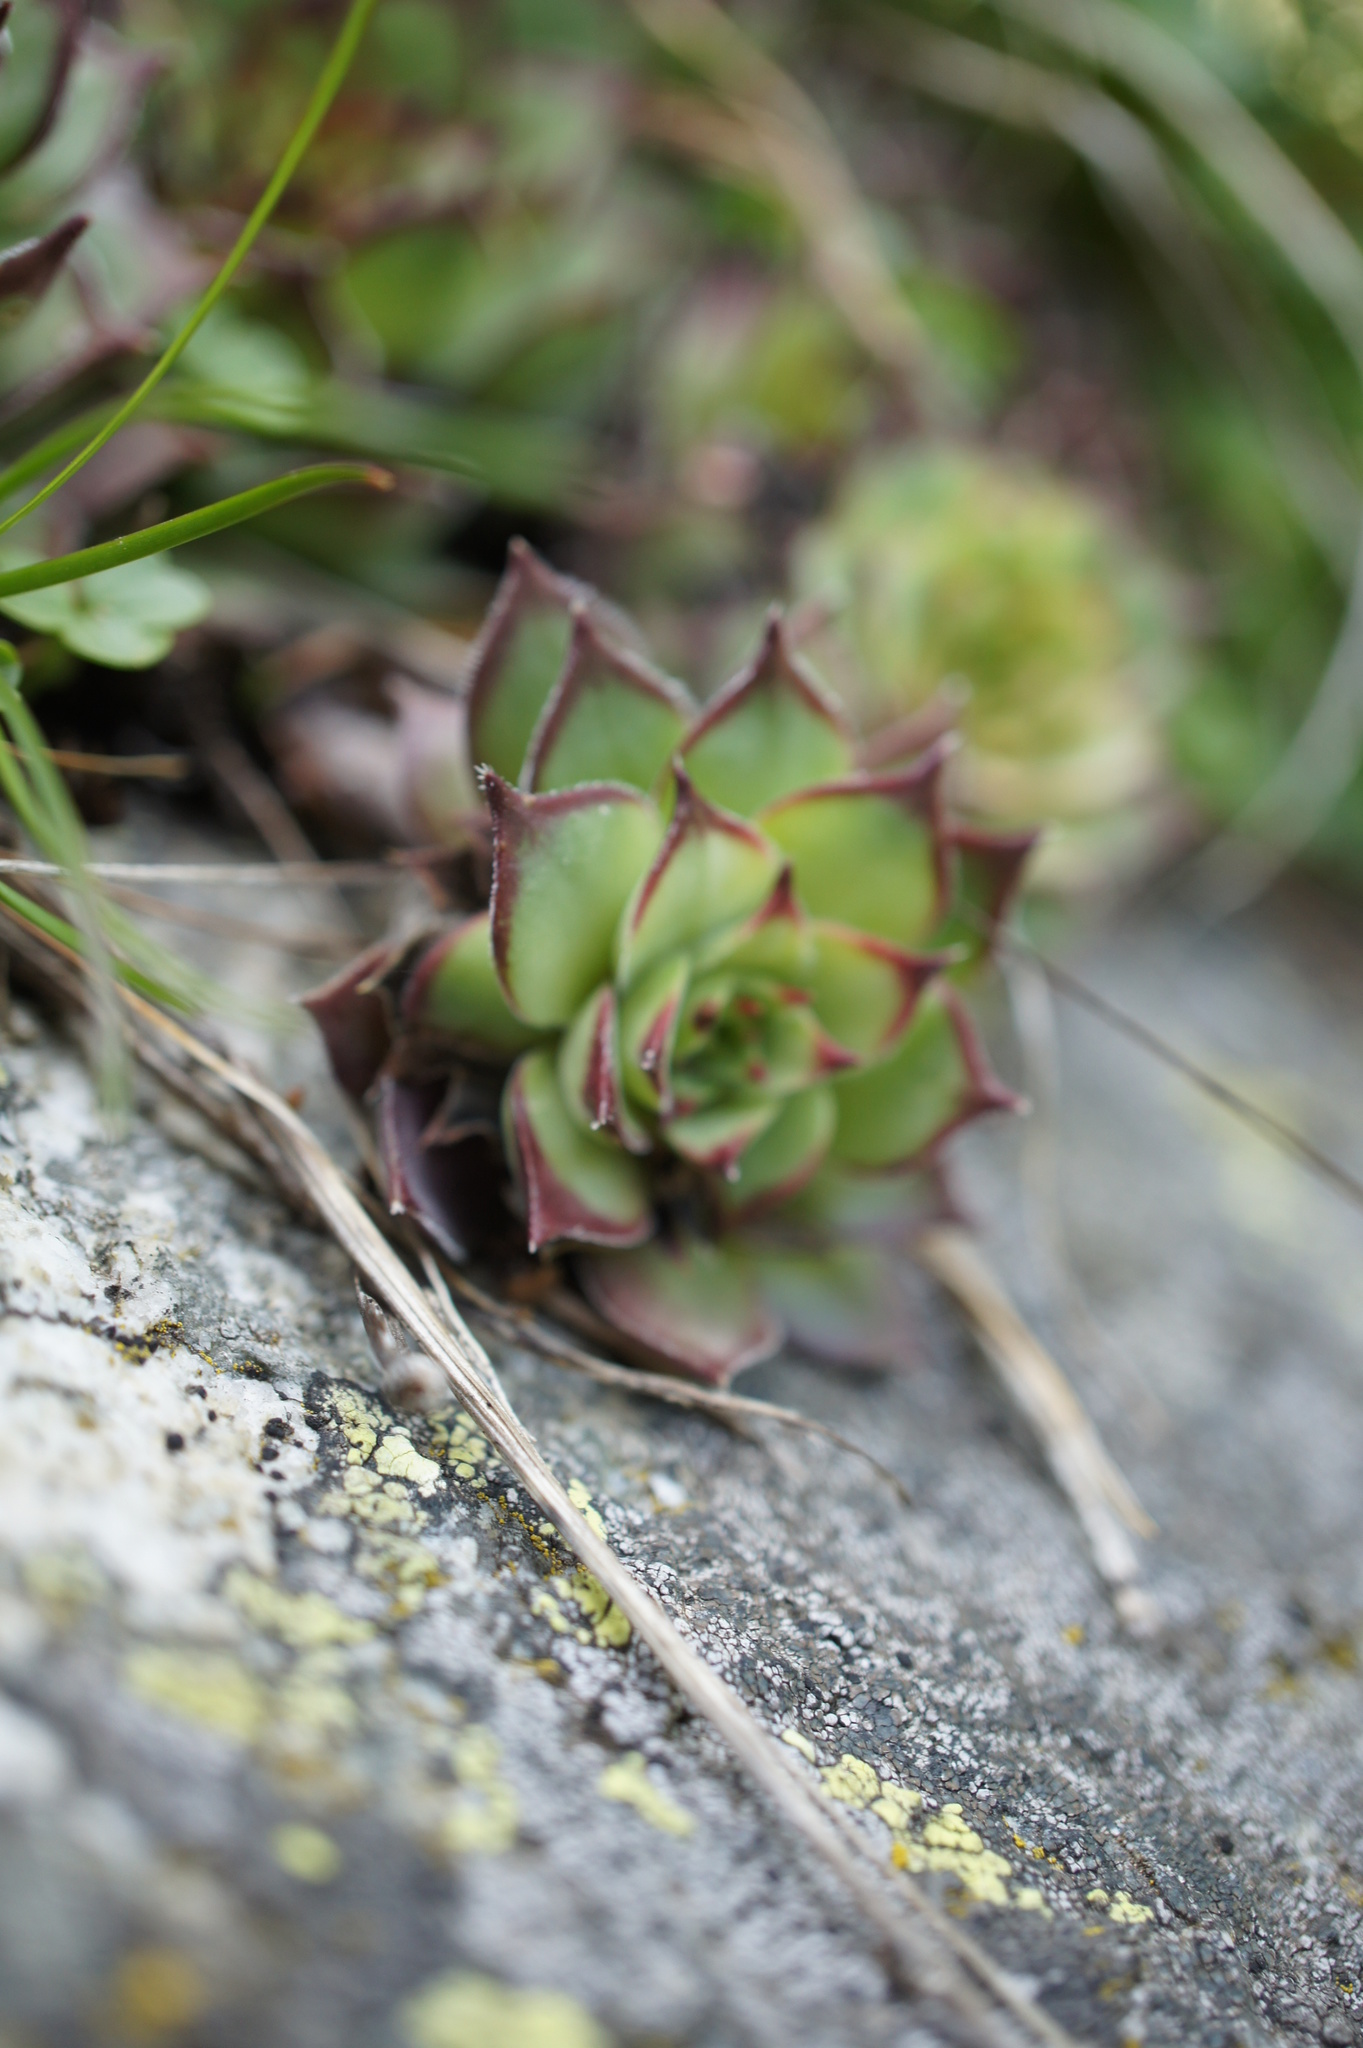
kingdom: Plantae
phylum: Tracheophyta
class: Magnoliopsida
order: Saxifragales
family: Crassulaceae
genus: Sempervivum
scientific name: Sempervivum marmoreum
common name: Houseleek
